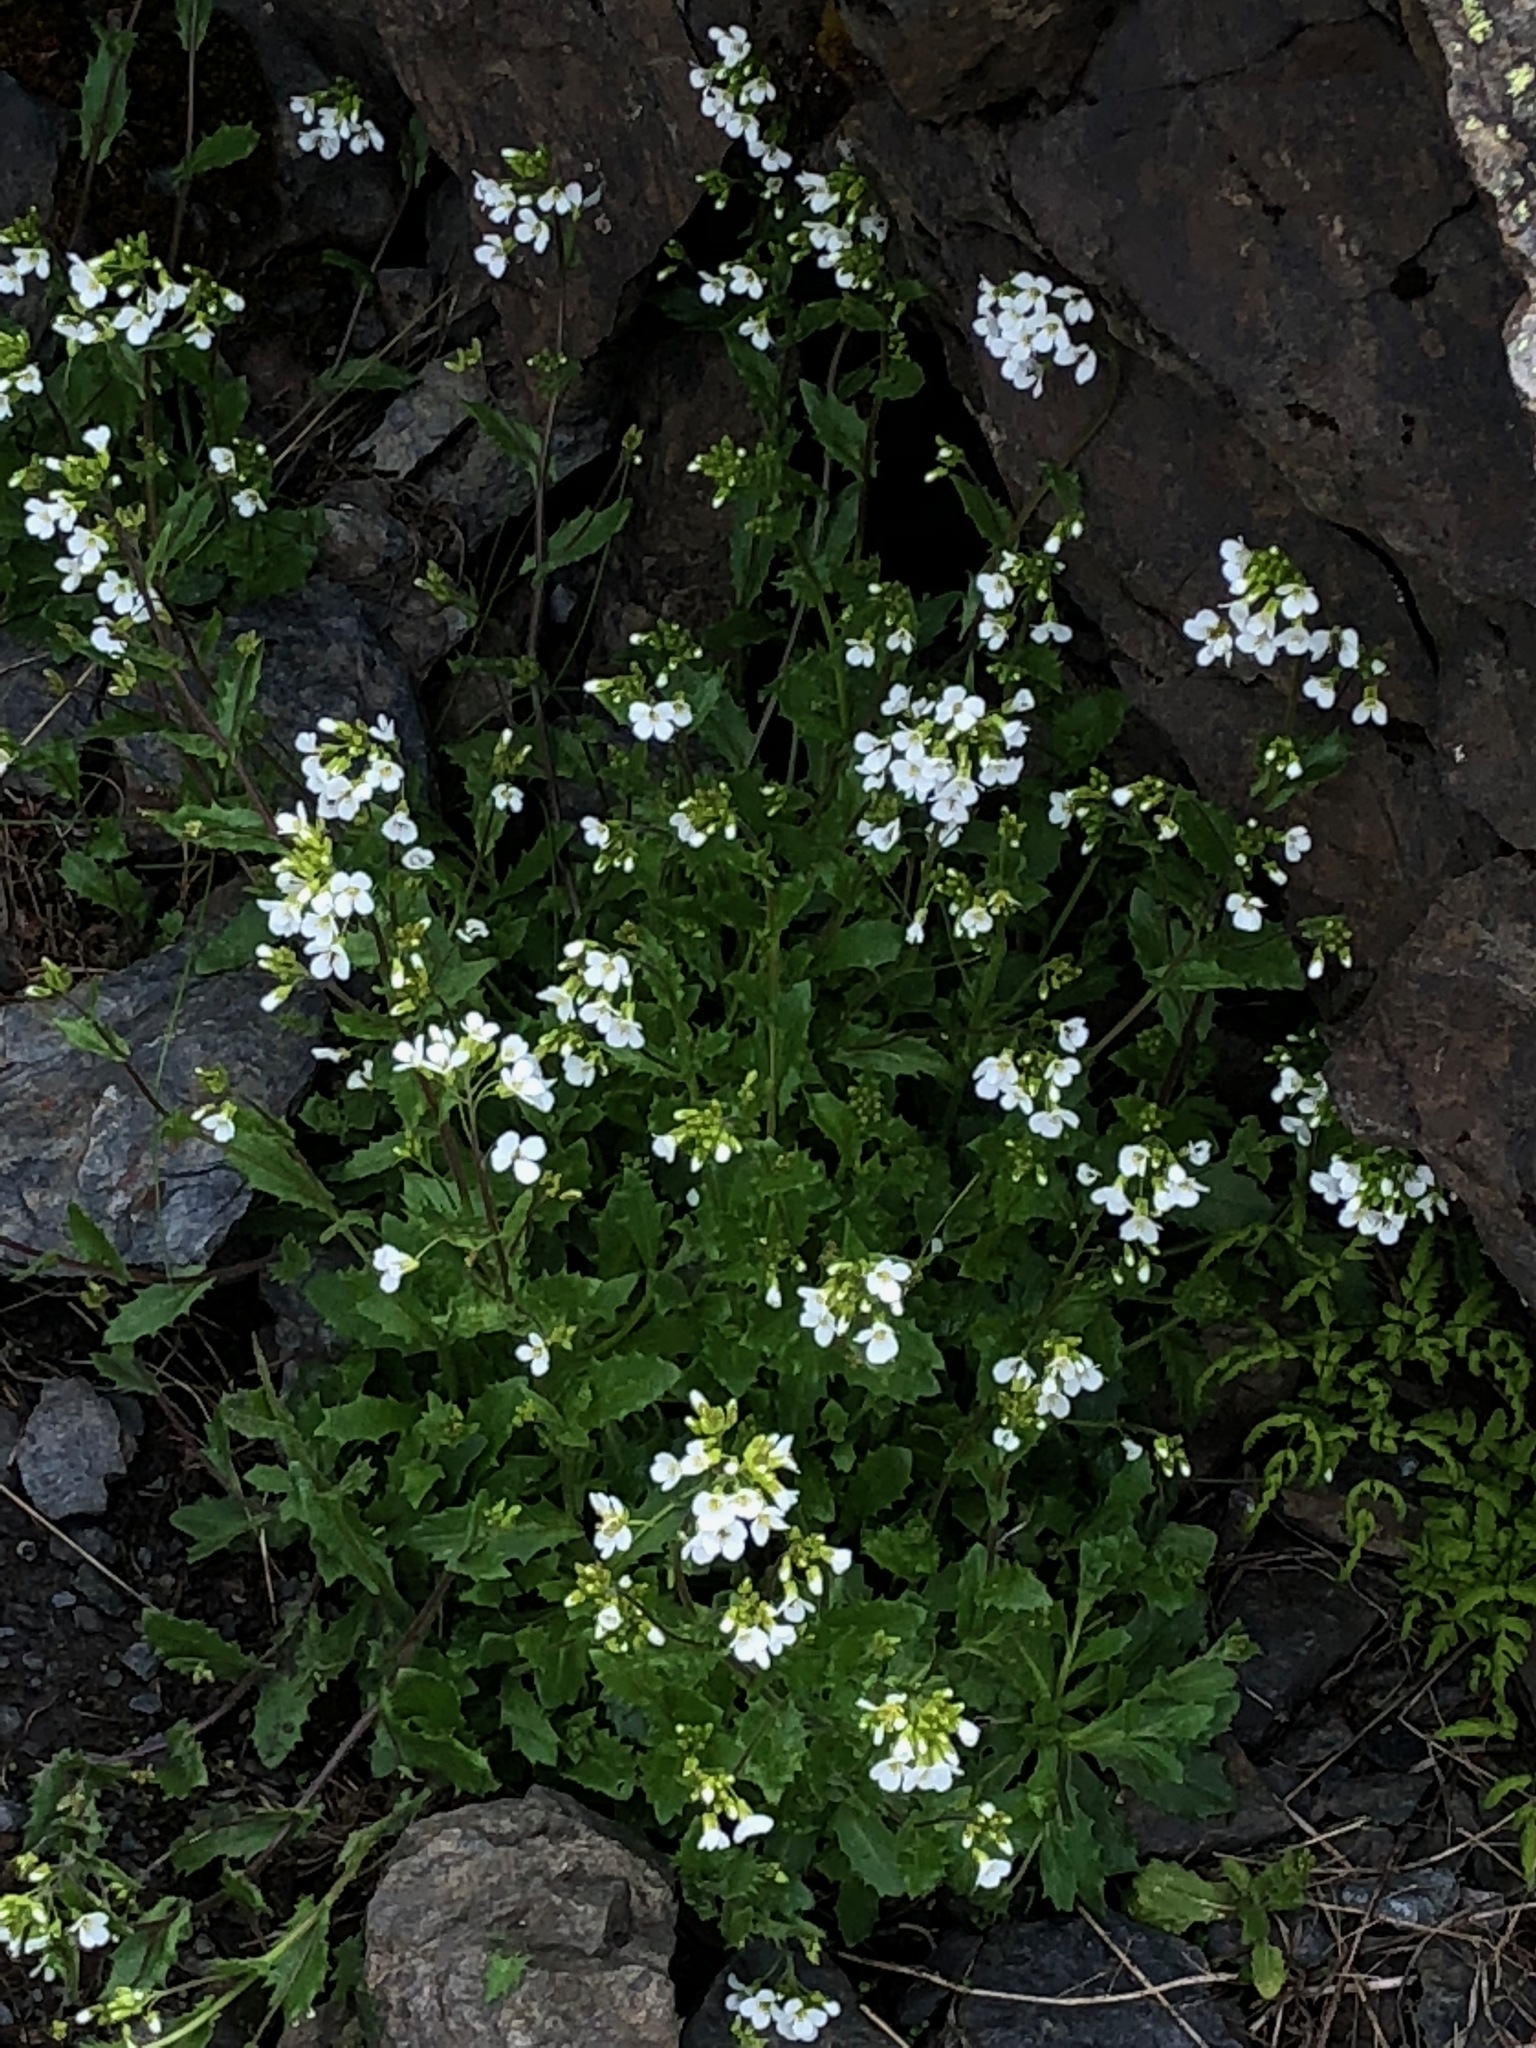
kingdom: Plantae
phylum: Tracheophyta
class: Magnoliopsida
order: Brassicales
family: Brassicaceae
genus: Arabis
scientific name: Arabis alpina
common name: Alpine rock-cress
